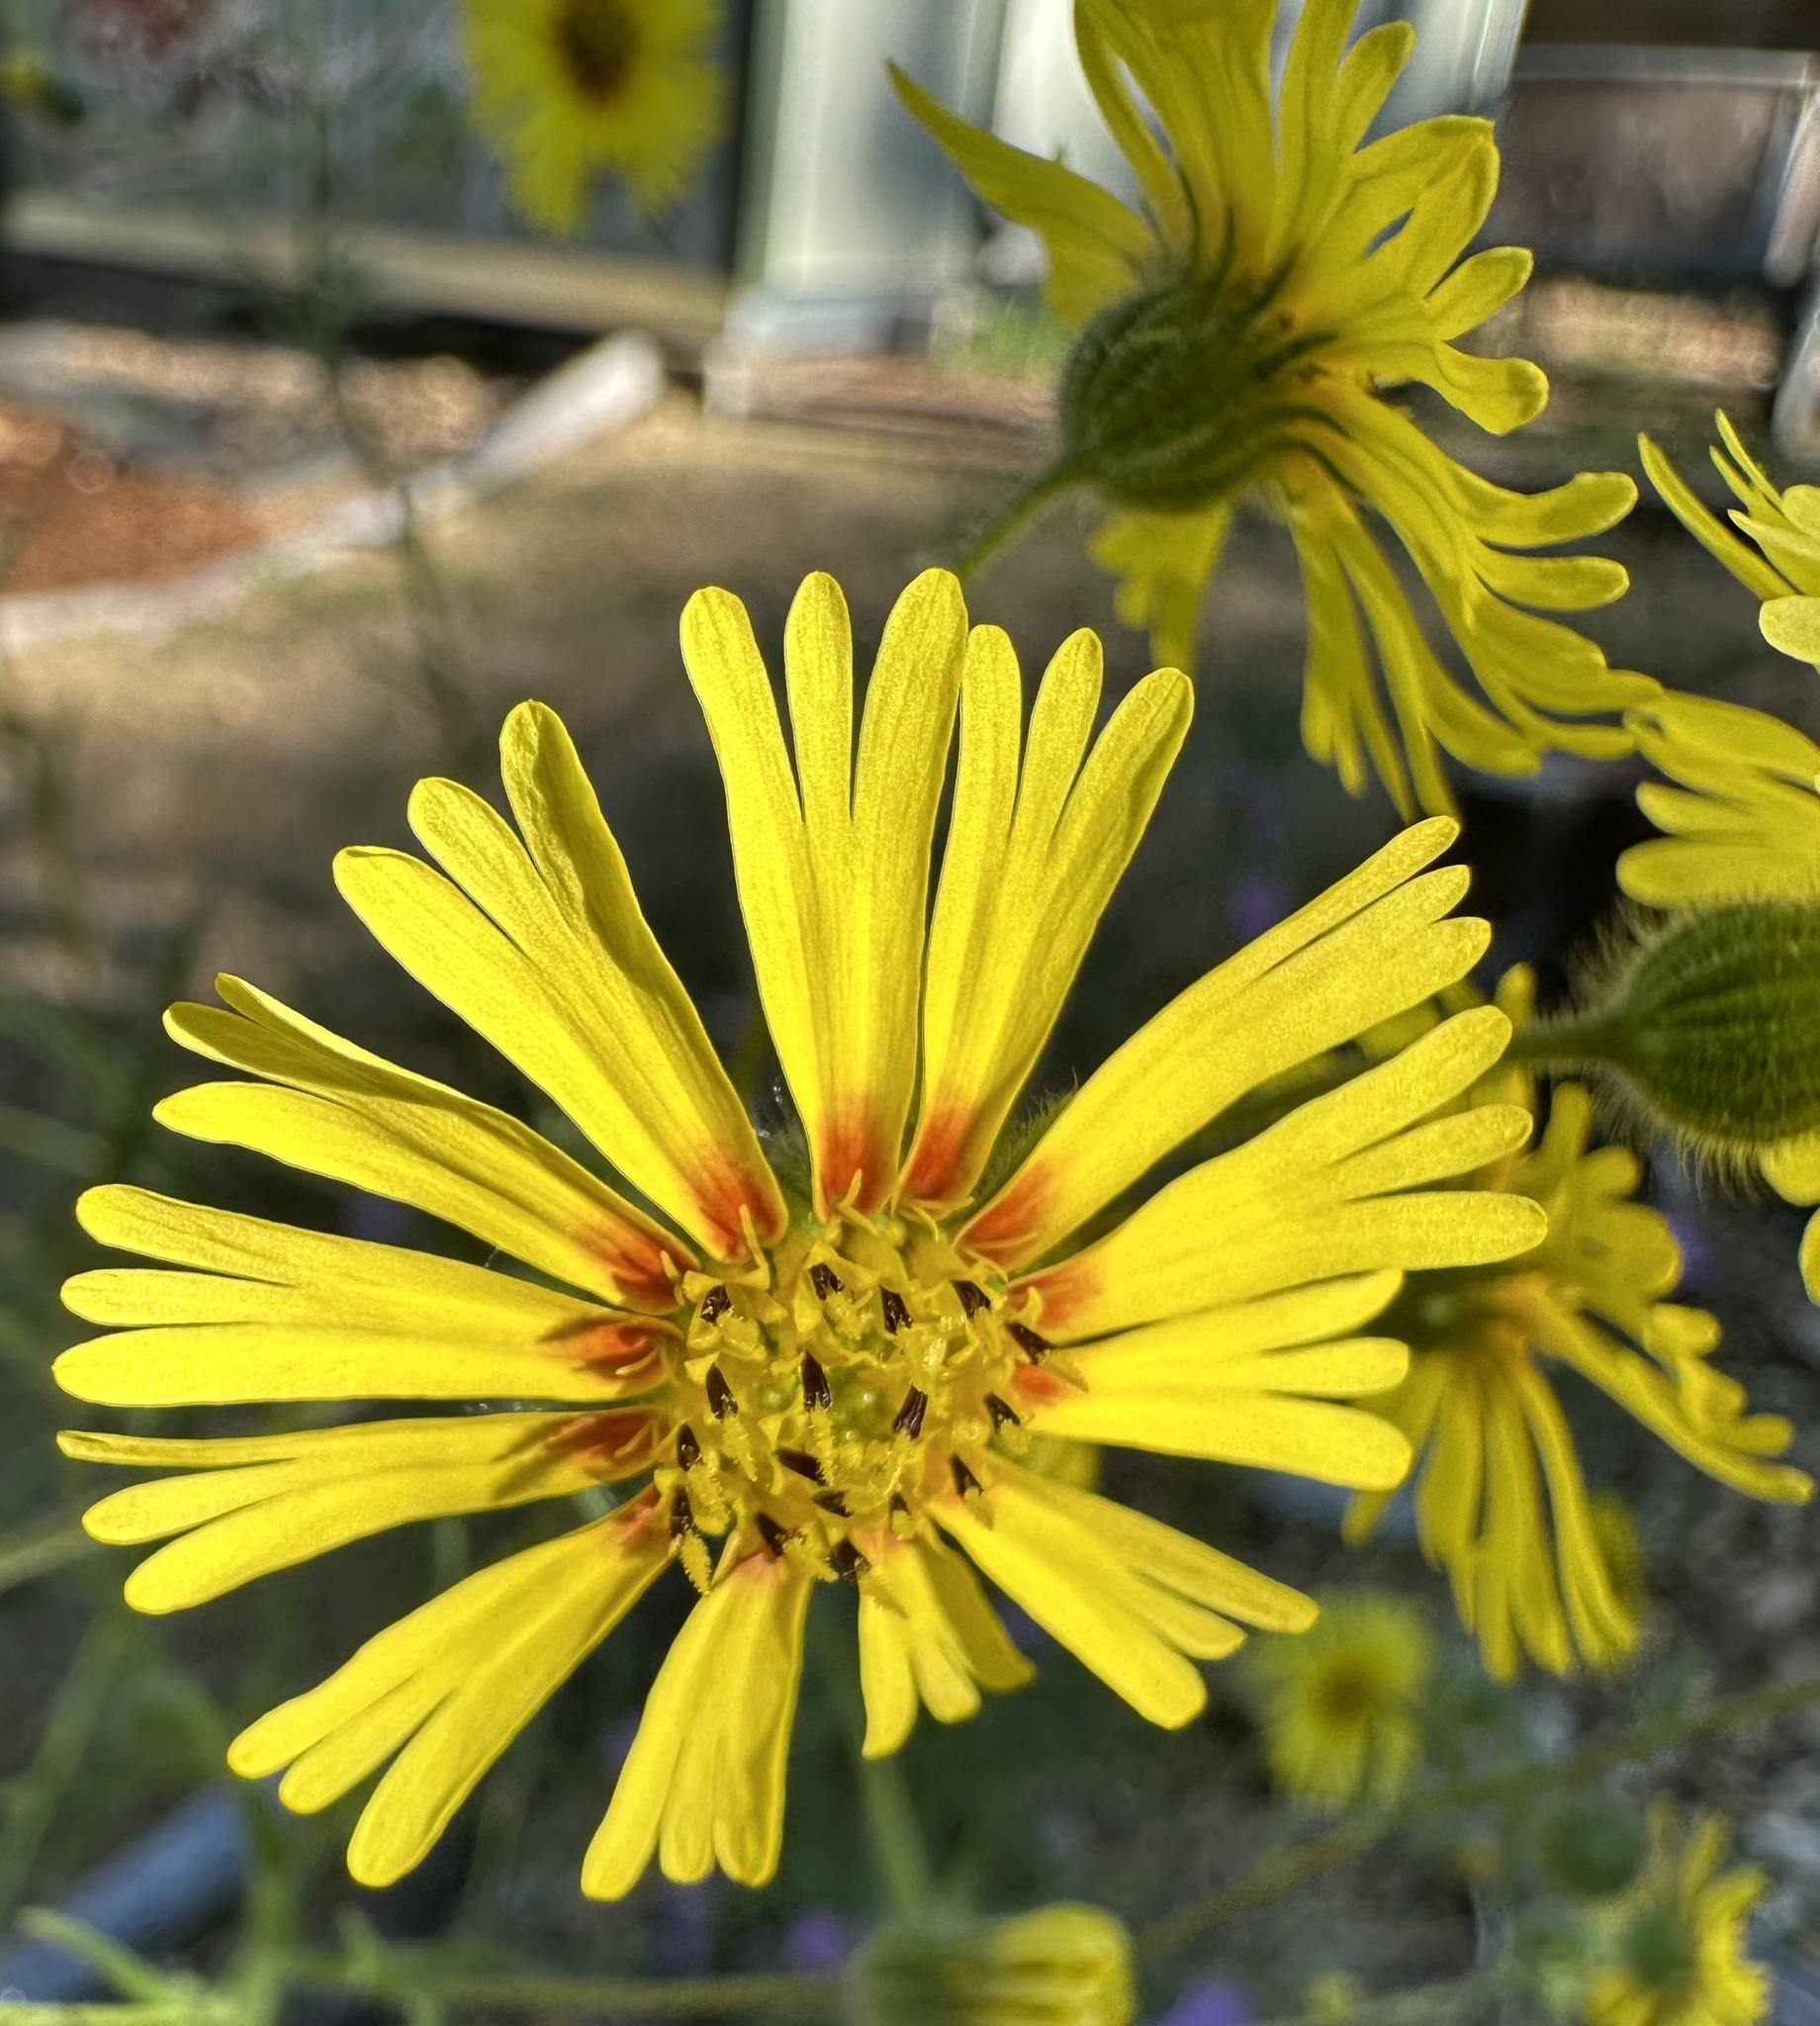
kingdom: Plantae
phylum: Tracheophyta
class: Magnoliopsida
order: Asterales
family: Asteraceae
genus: Madia
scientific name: Madia elegans
